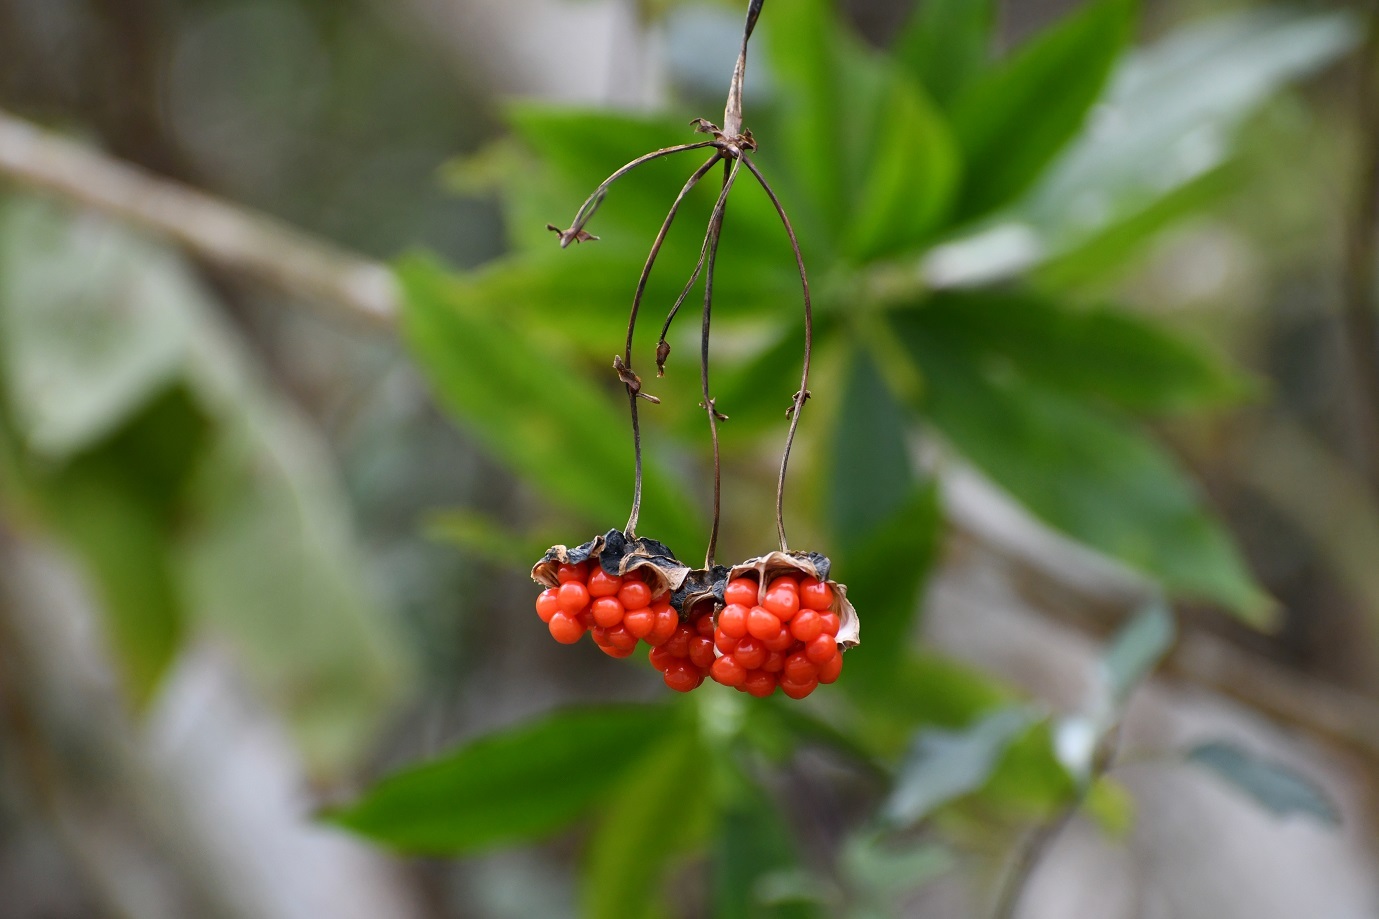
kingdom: Plantae
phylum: Tracheophyta
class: Liliopsida
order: Liliales
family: Alstroemeriaceae
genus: Bomarea
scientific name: Bomarea edulis
